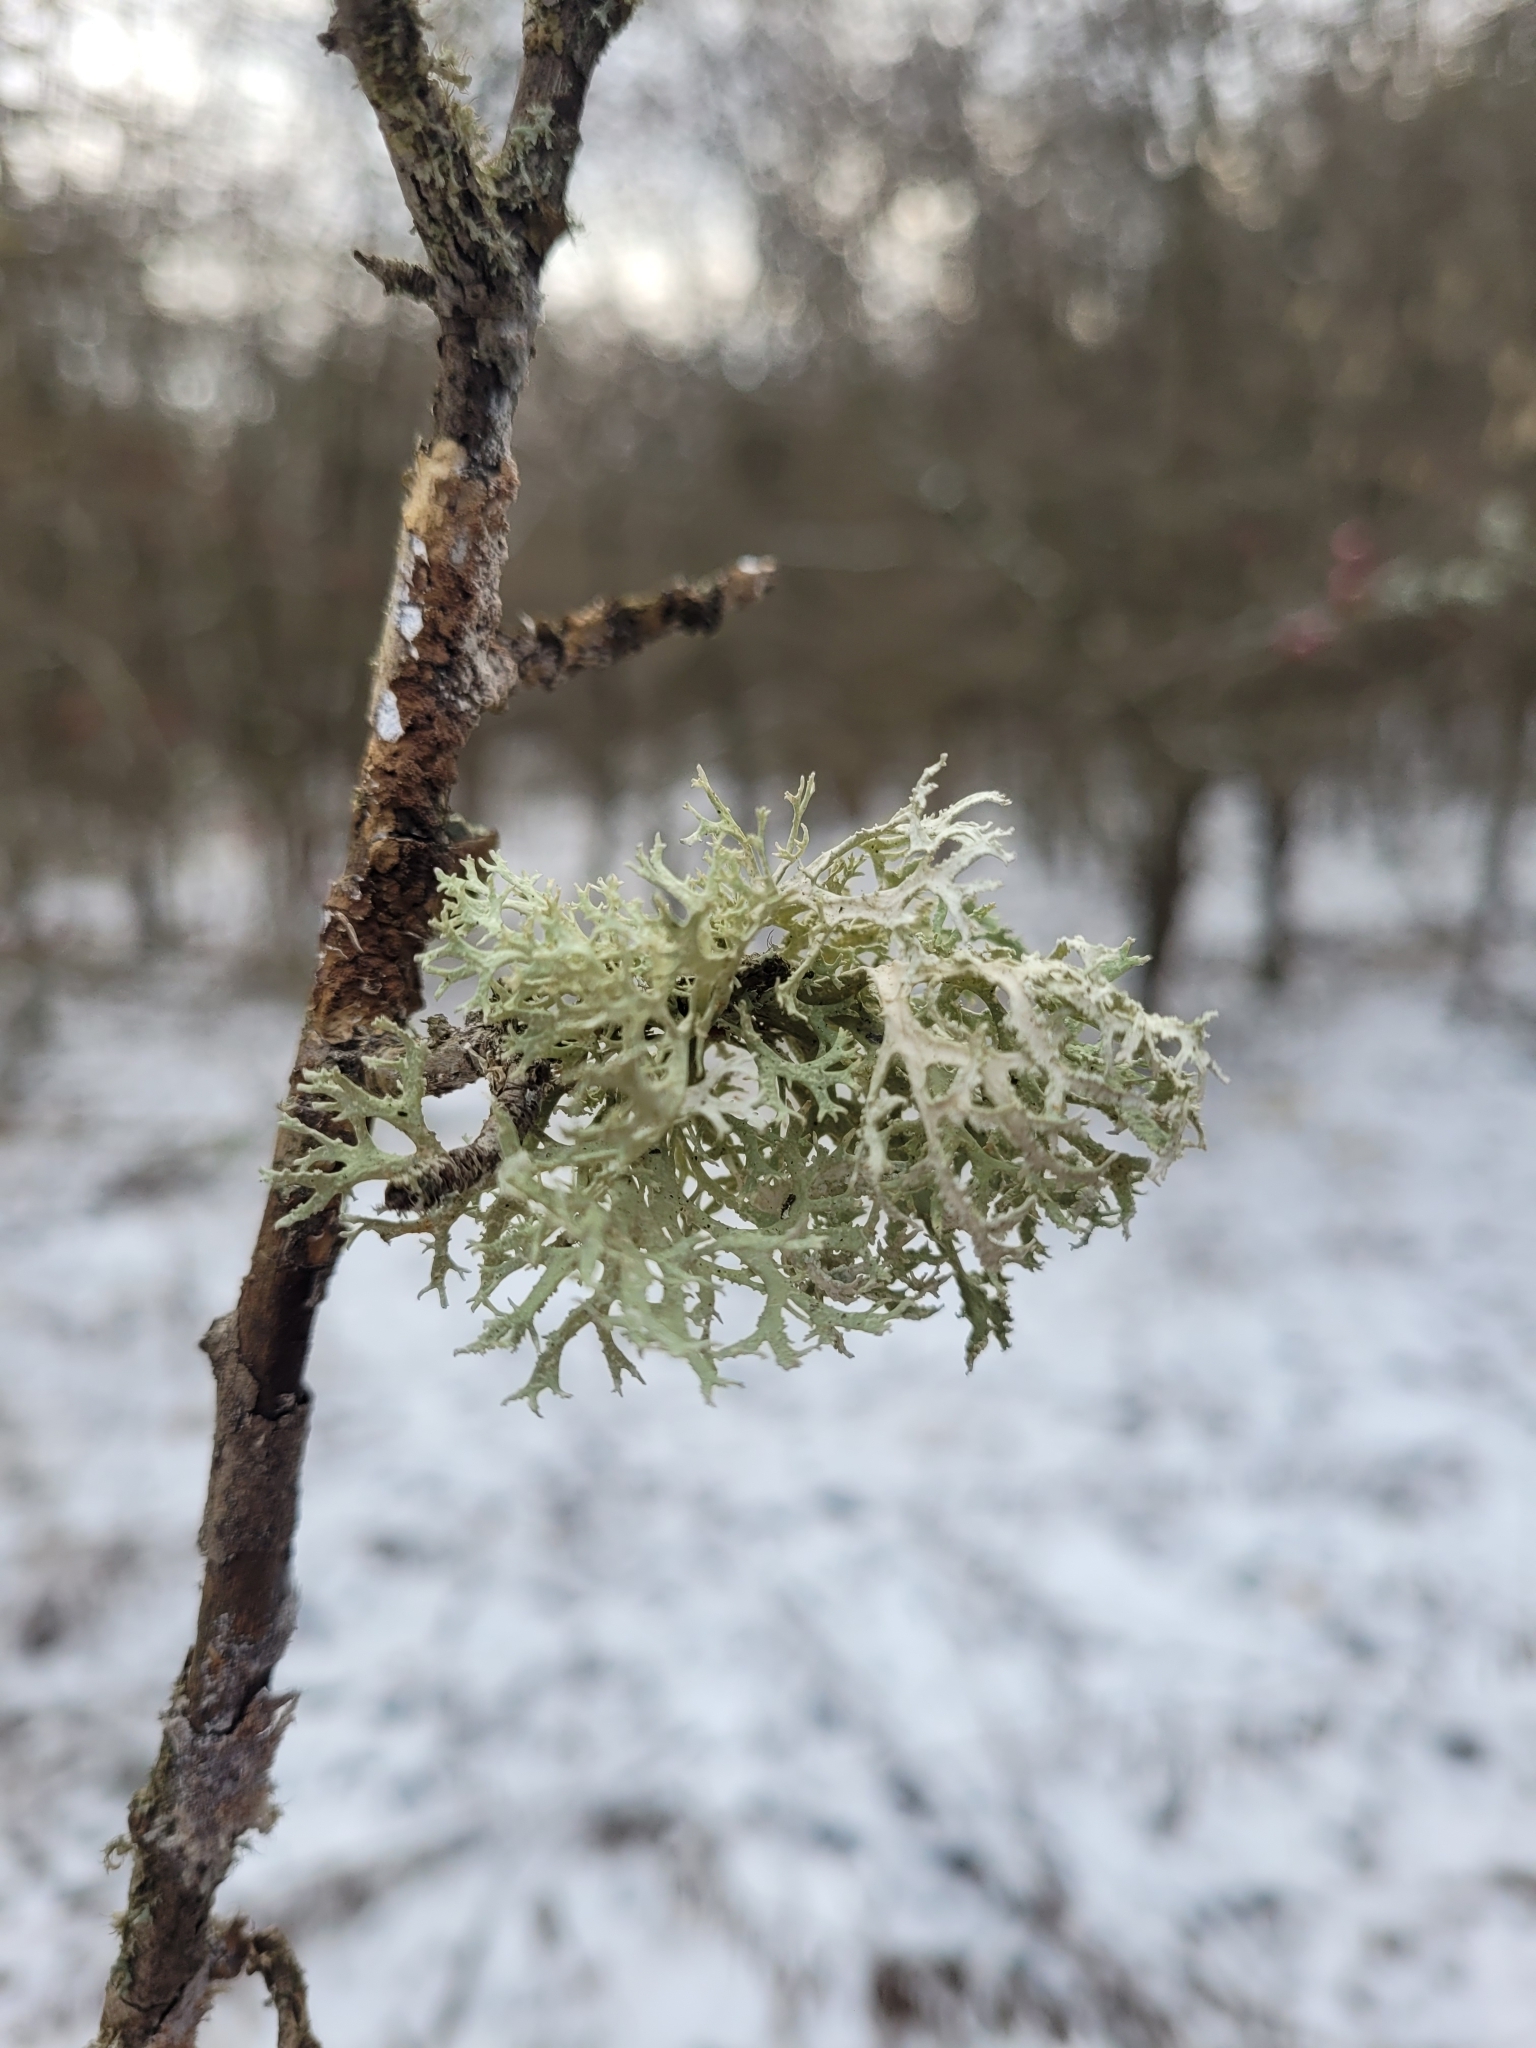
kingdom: Fungi
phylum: Ascomycota
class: Lecanoromycetes
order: Lecanorales
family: Parmeliaceae
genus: Evernia
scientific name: Evernia prunastri
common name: Oak moss
